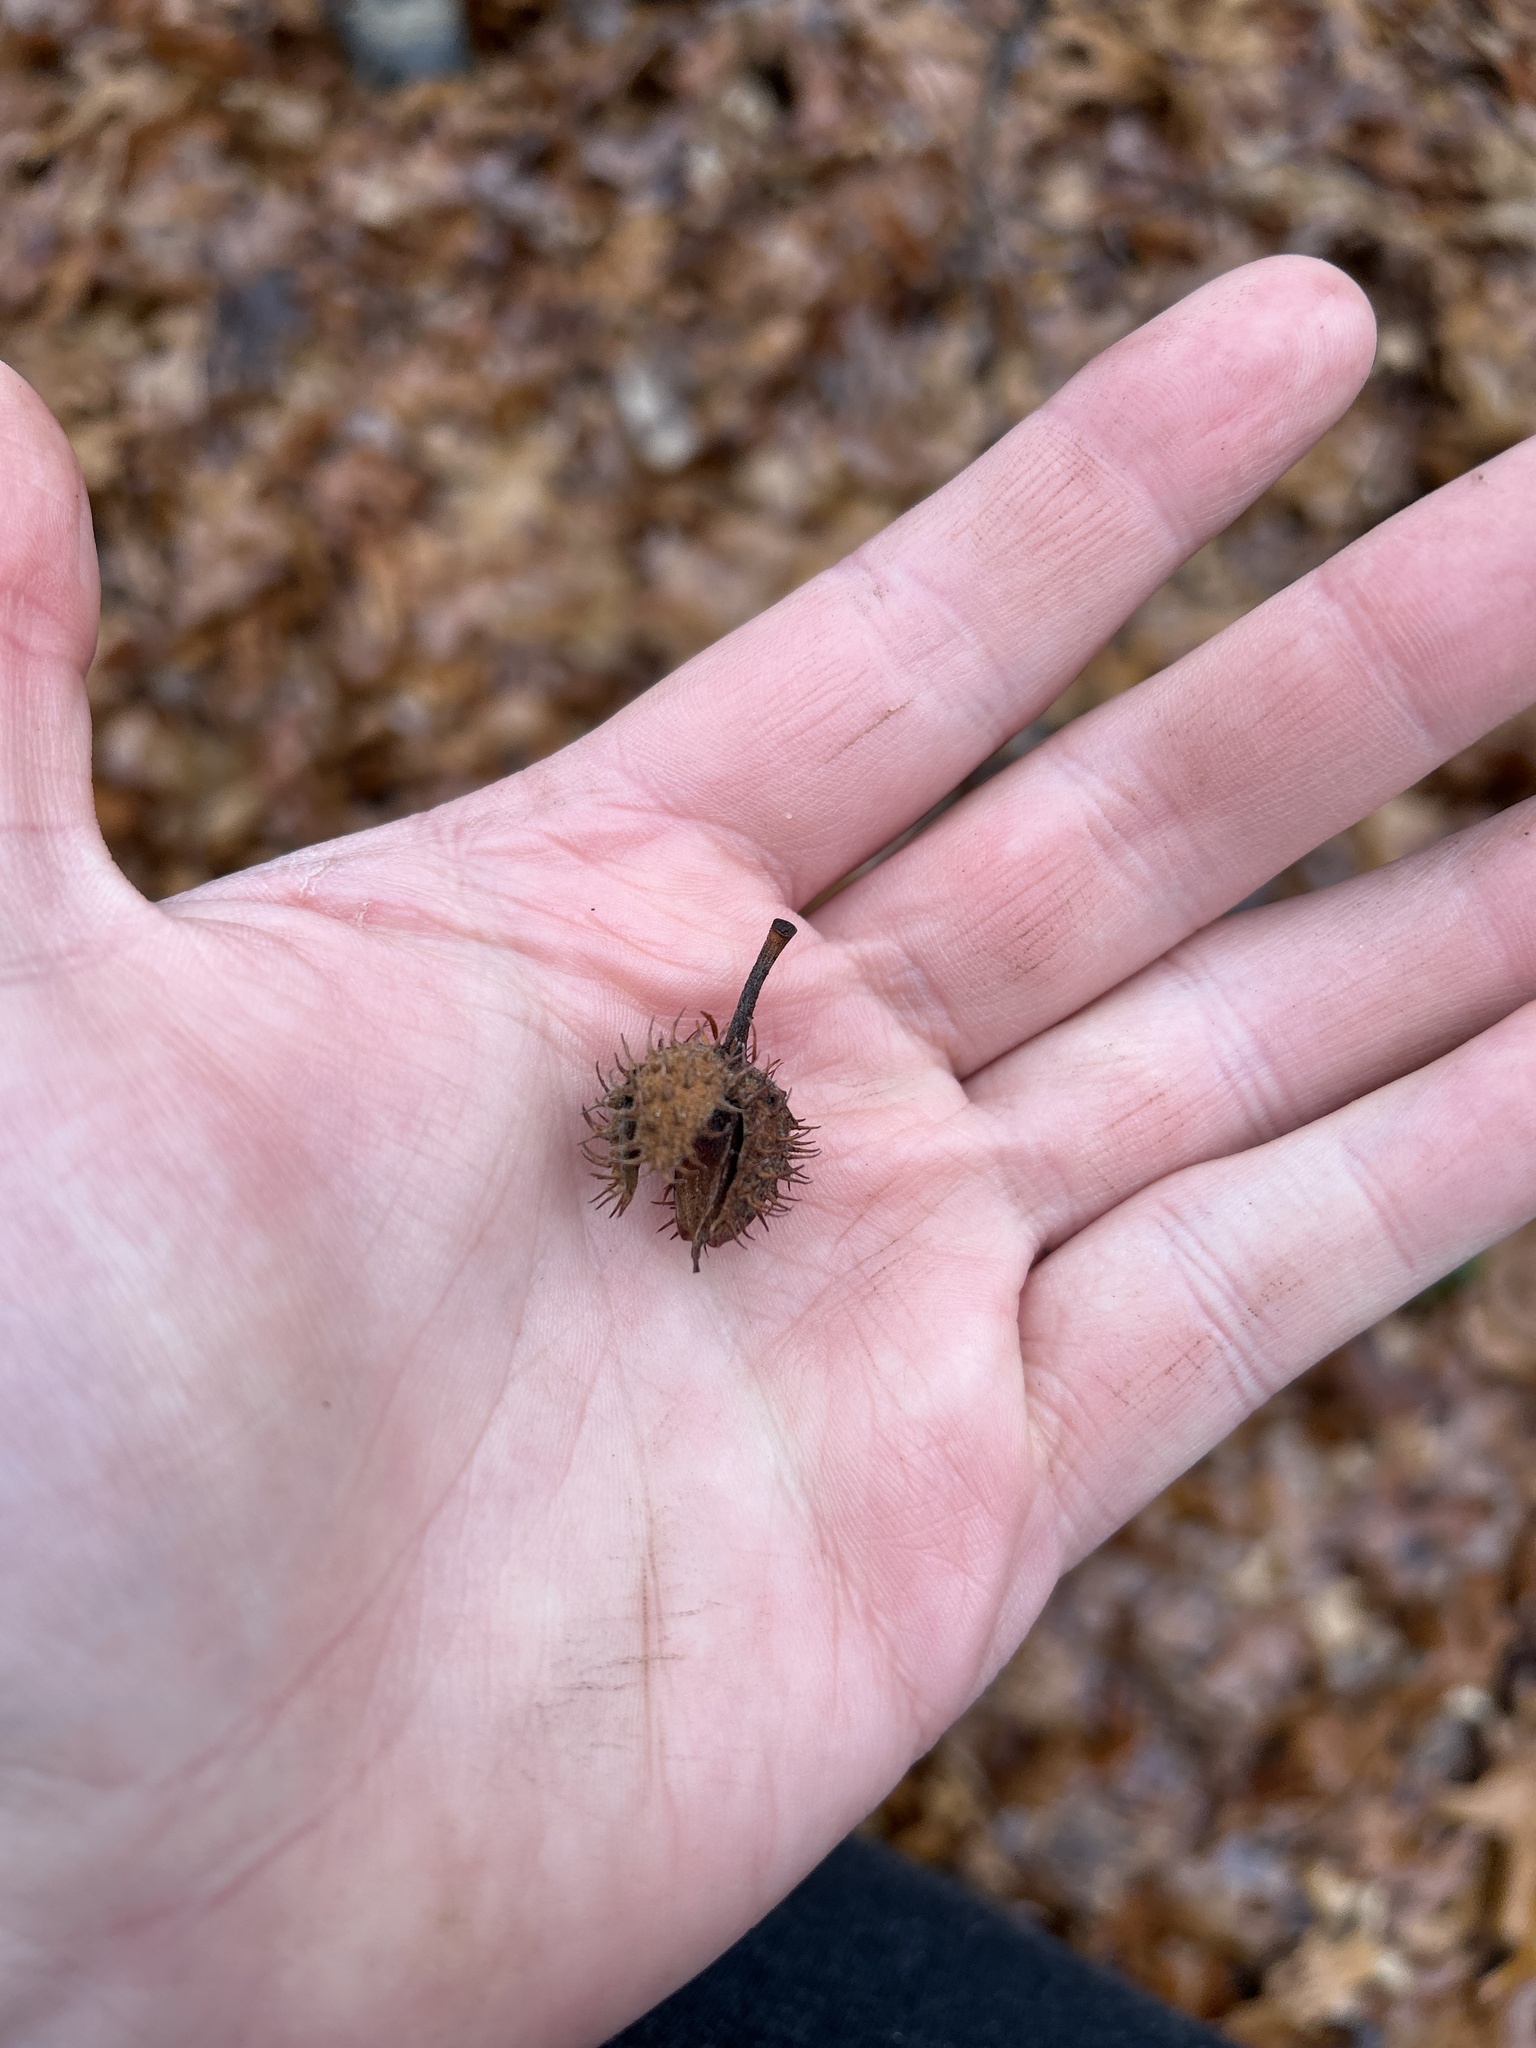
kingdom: Plantae
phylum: Tracheophyta
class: Magnoliopsida
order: Fagales
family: Fagaceae
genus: Fagus
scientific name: Fagus grandifolia
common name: American beech
